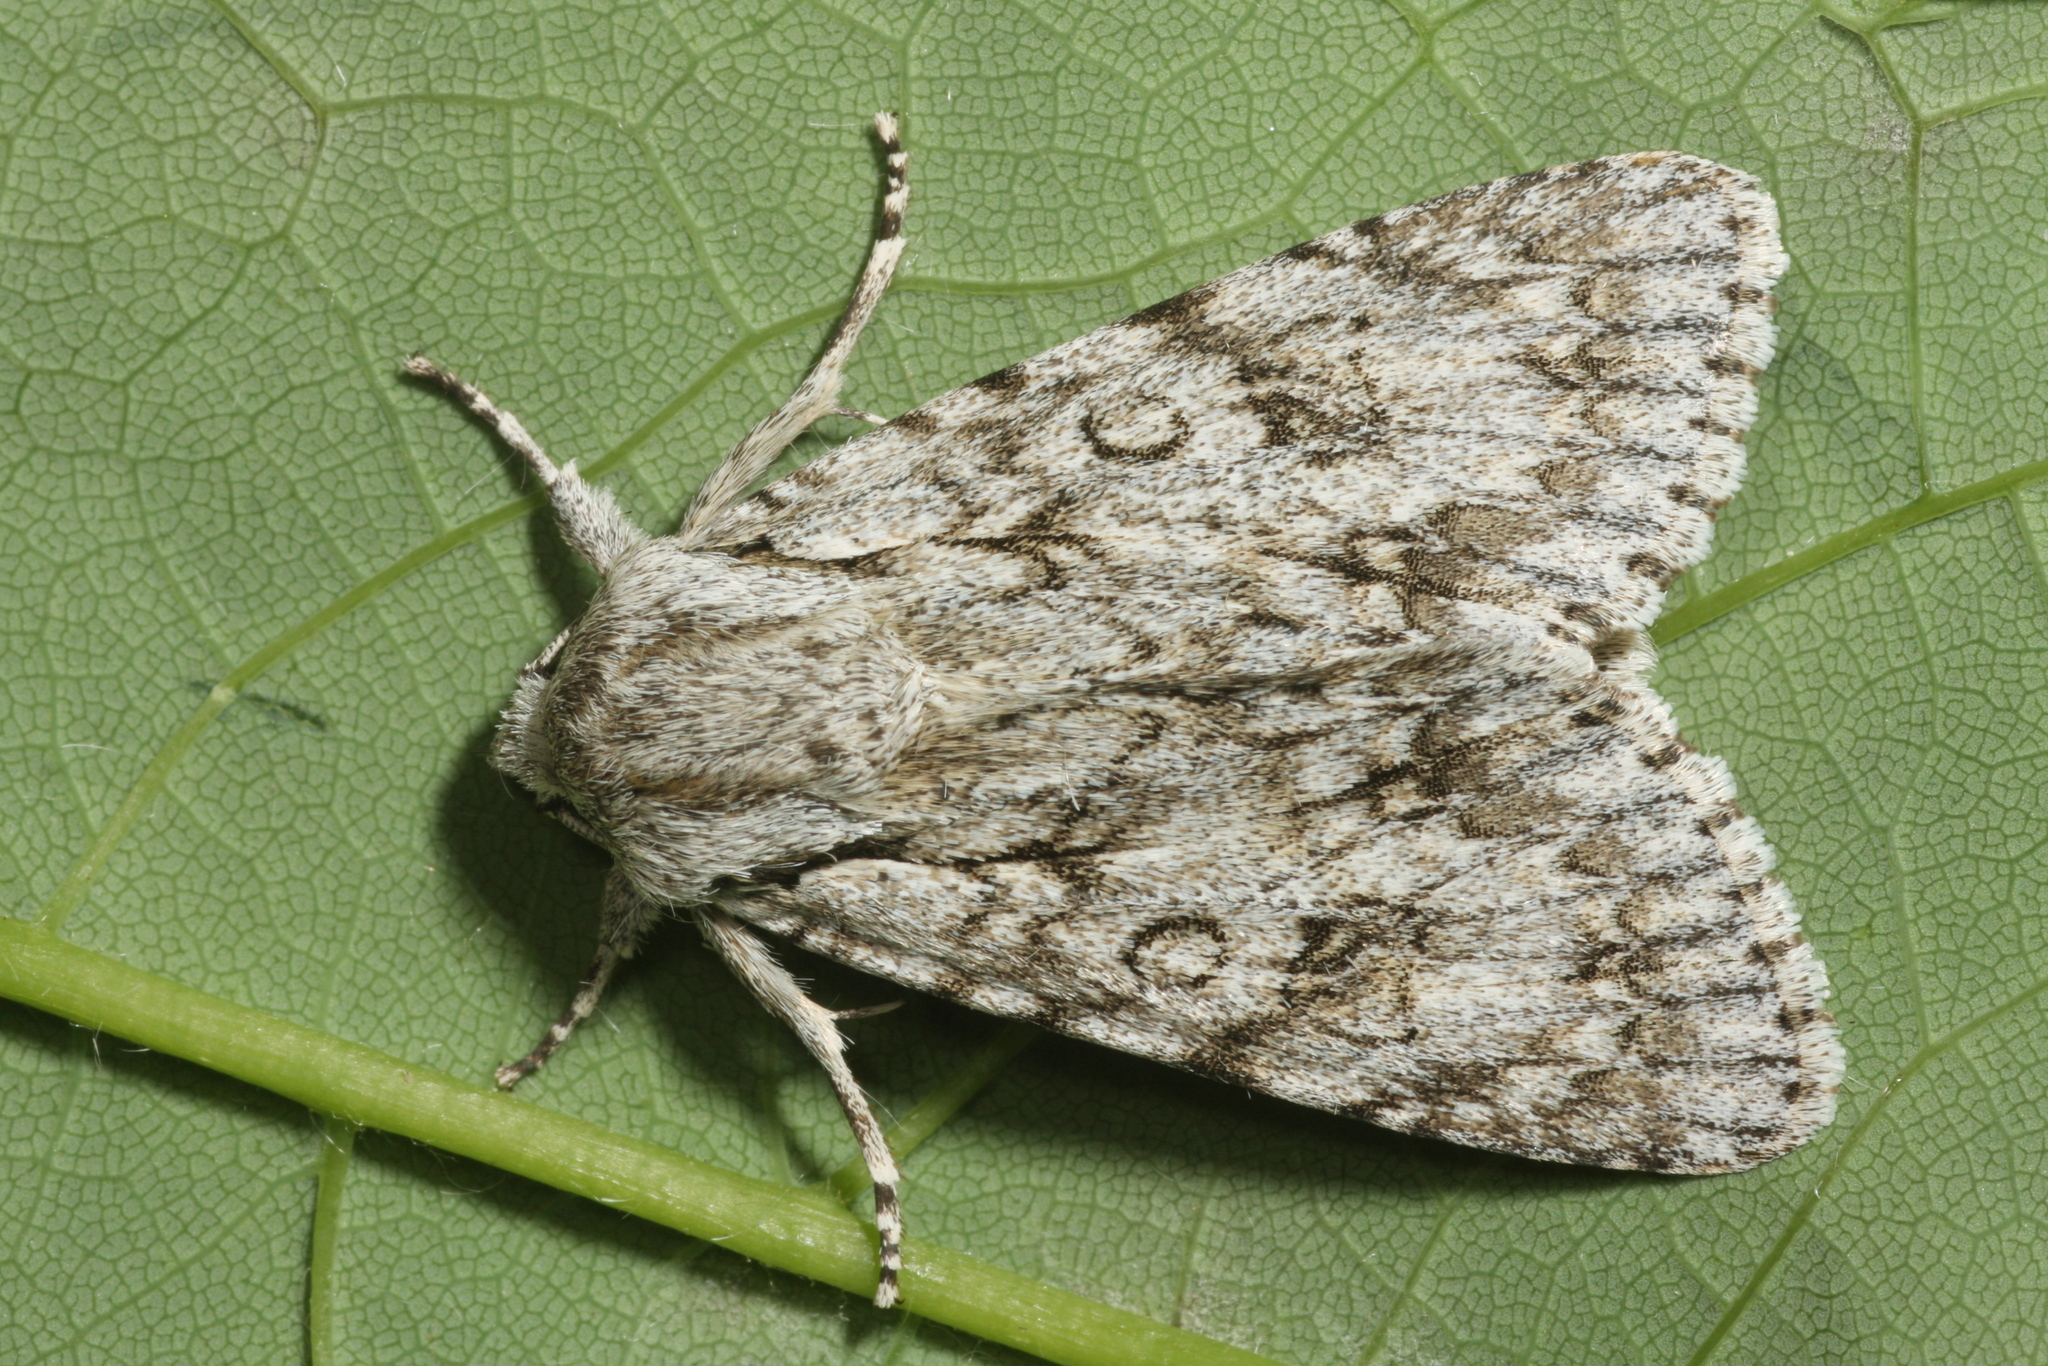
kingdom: Animalia
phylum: Arthropoda
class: Insecta
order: Lepidoptera
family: Noctuidae
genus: Acronicta
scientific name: Acronicta aceris
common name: Sycamore
